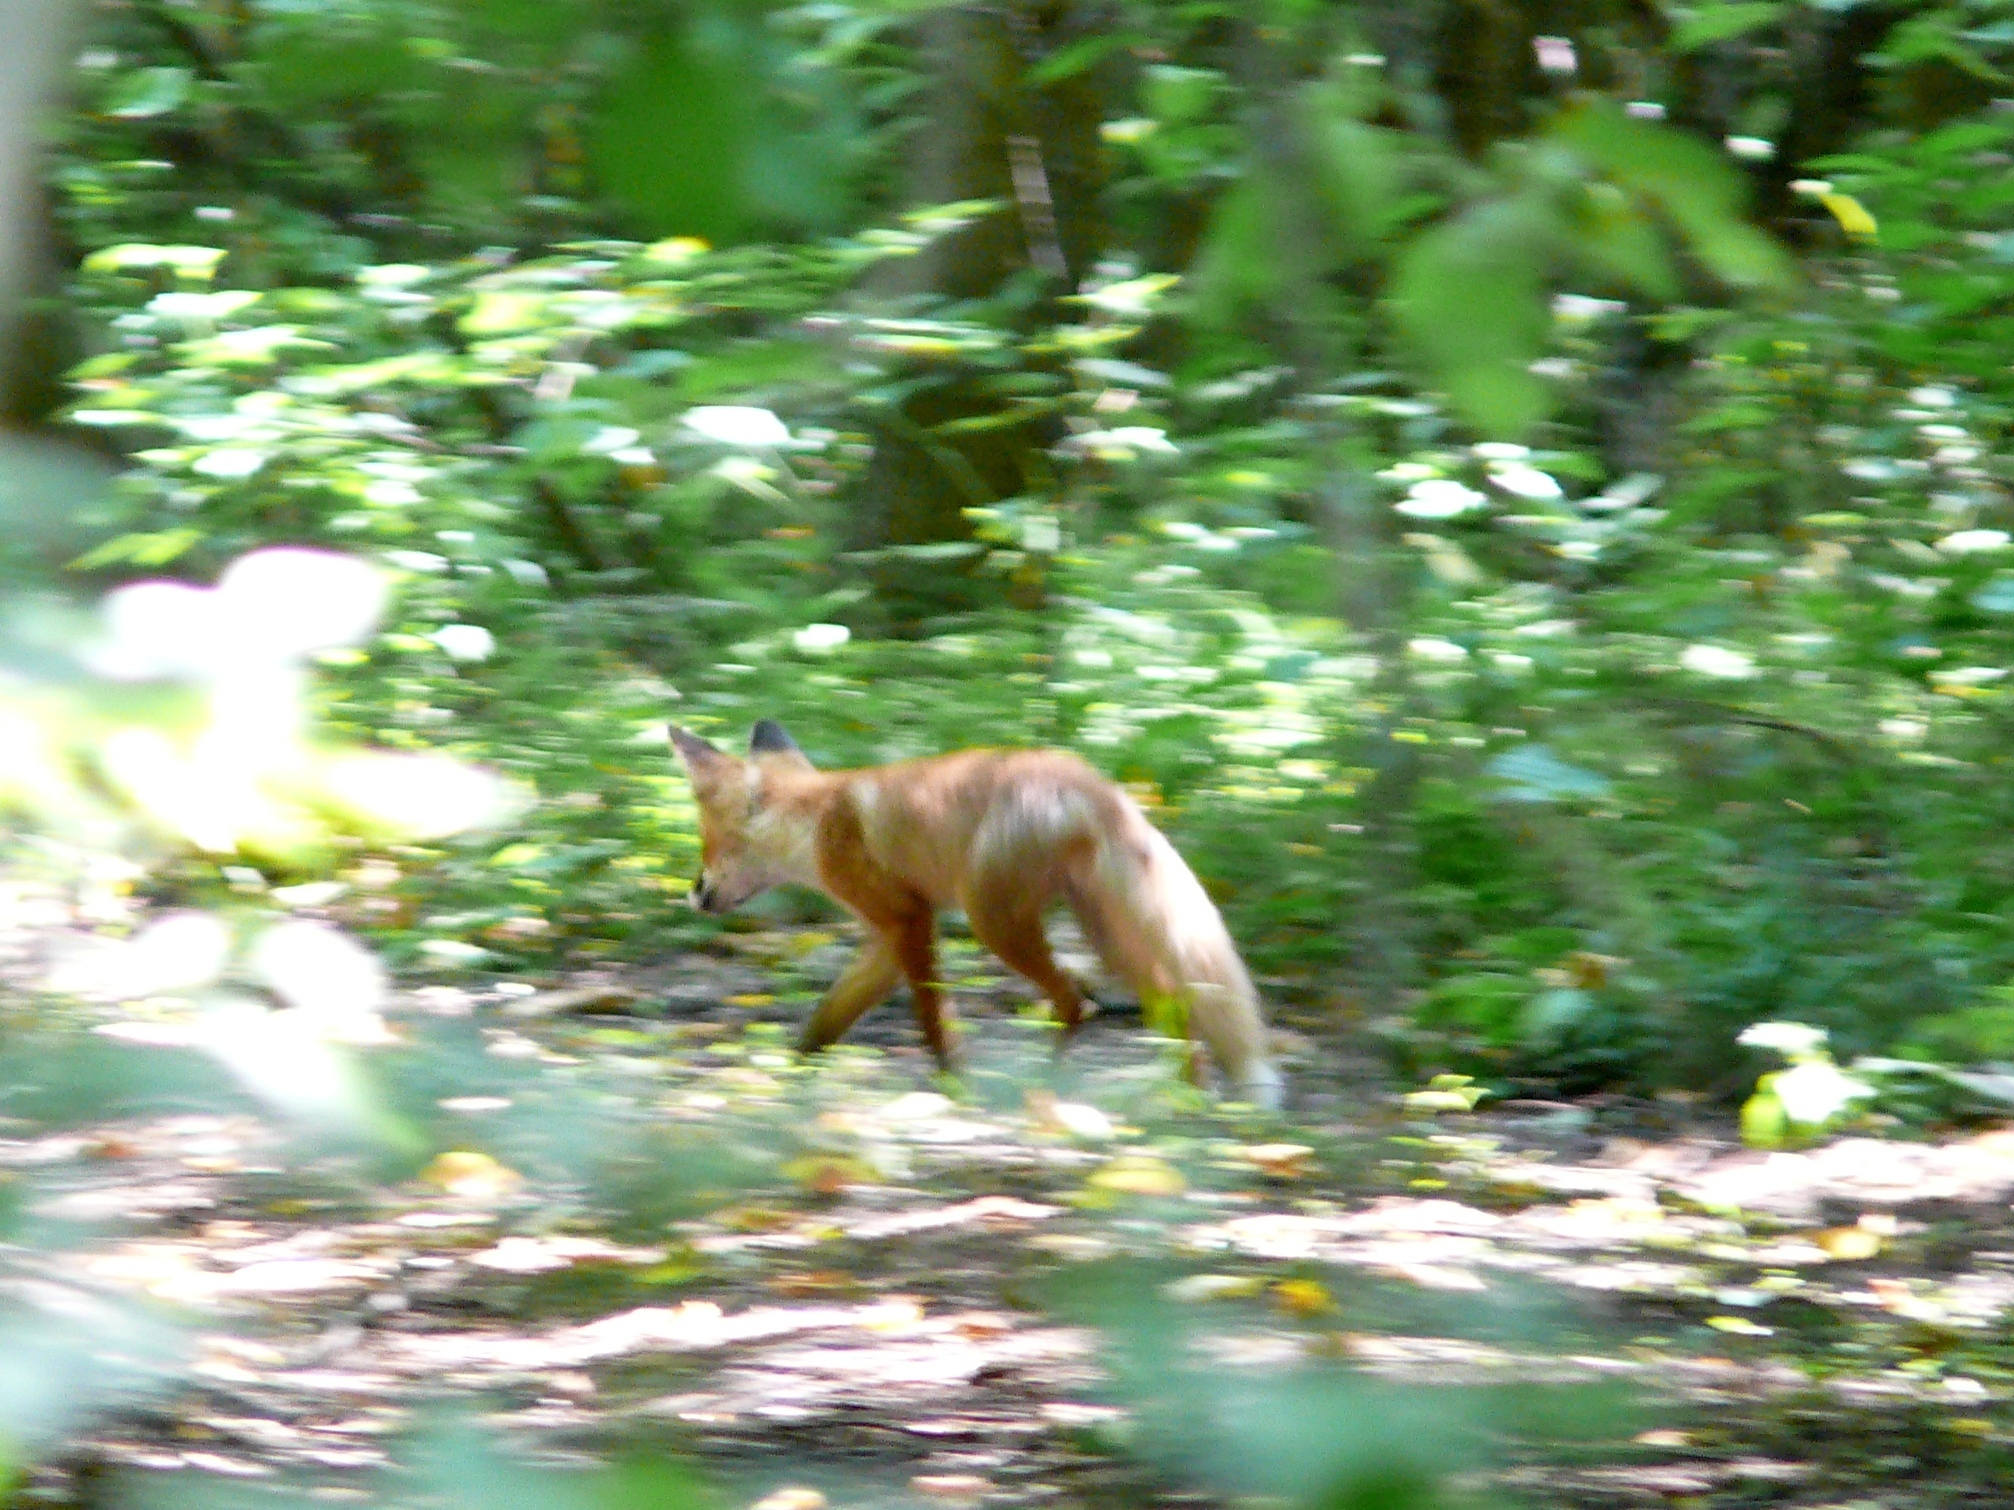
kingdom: Animalia
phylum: Chordata
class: Mammalia
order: Carnivora
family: Canidae
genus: Vulpes
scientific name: Vulpes vulpes
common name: Red fox
